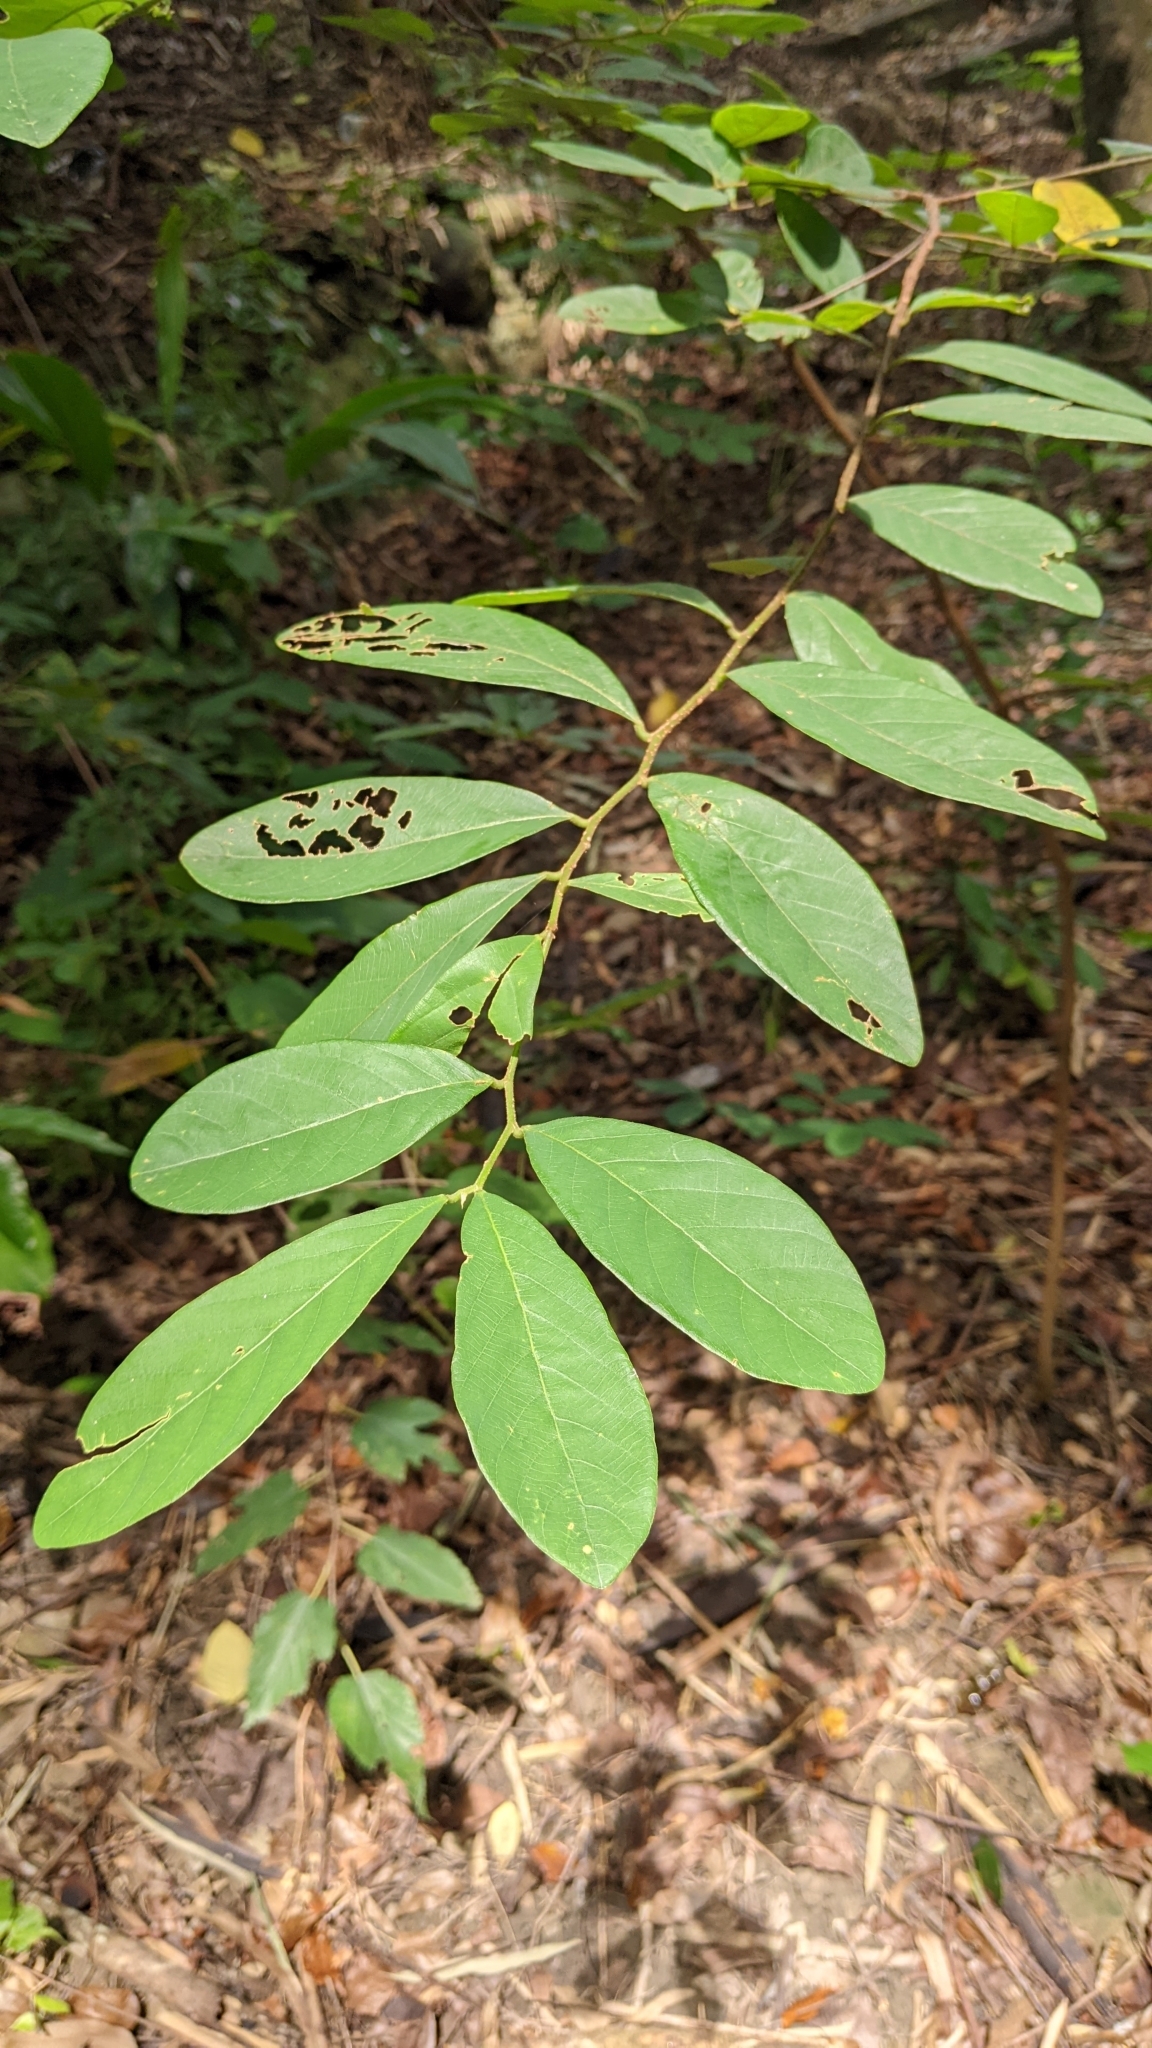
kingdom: Plantae
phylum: Tracheophyta
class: Magnoliopsida
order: Malpighiales
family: Phyllanthaceae
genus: Bridelia
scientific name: Bridelia tomentosa
